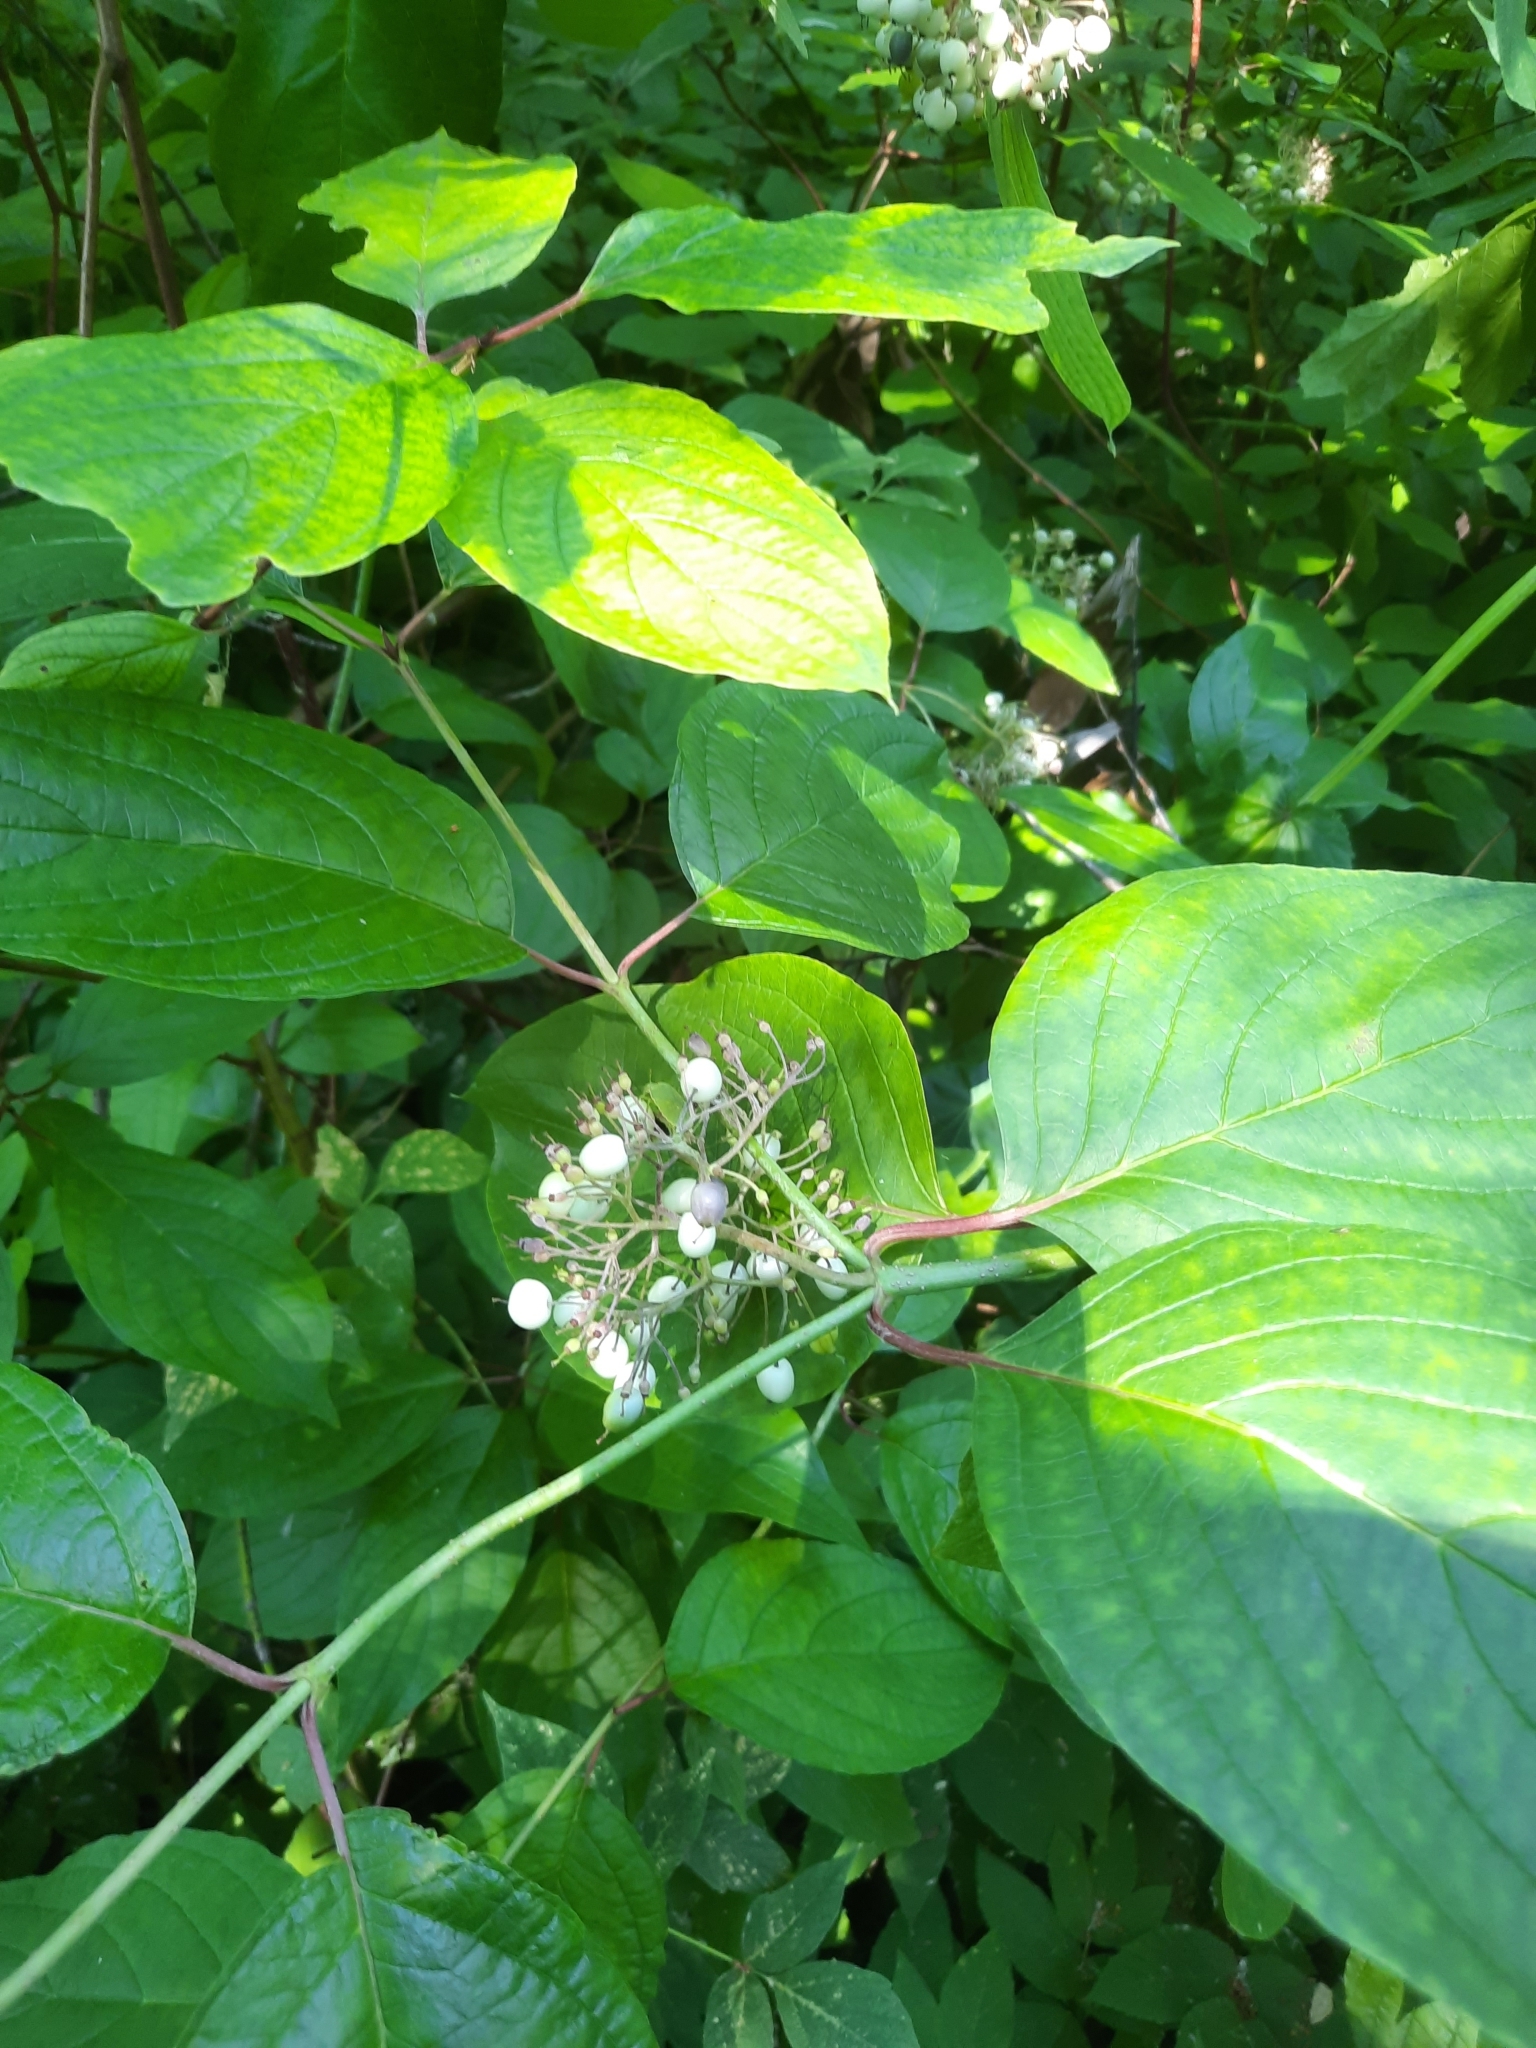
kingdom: Plantae
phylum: Tracheophyta
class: Magnoliopsida
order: Cornales
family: Cornaceae
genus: Cornus
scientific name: Cornus alba
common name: White dogwood
